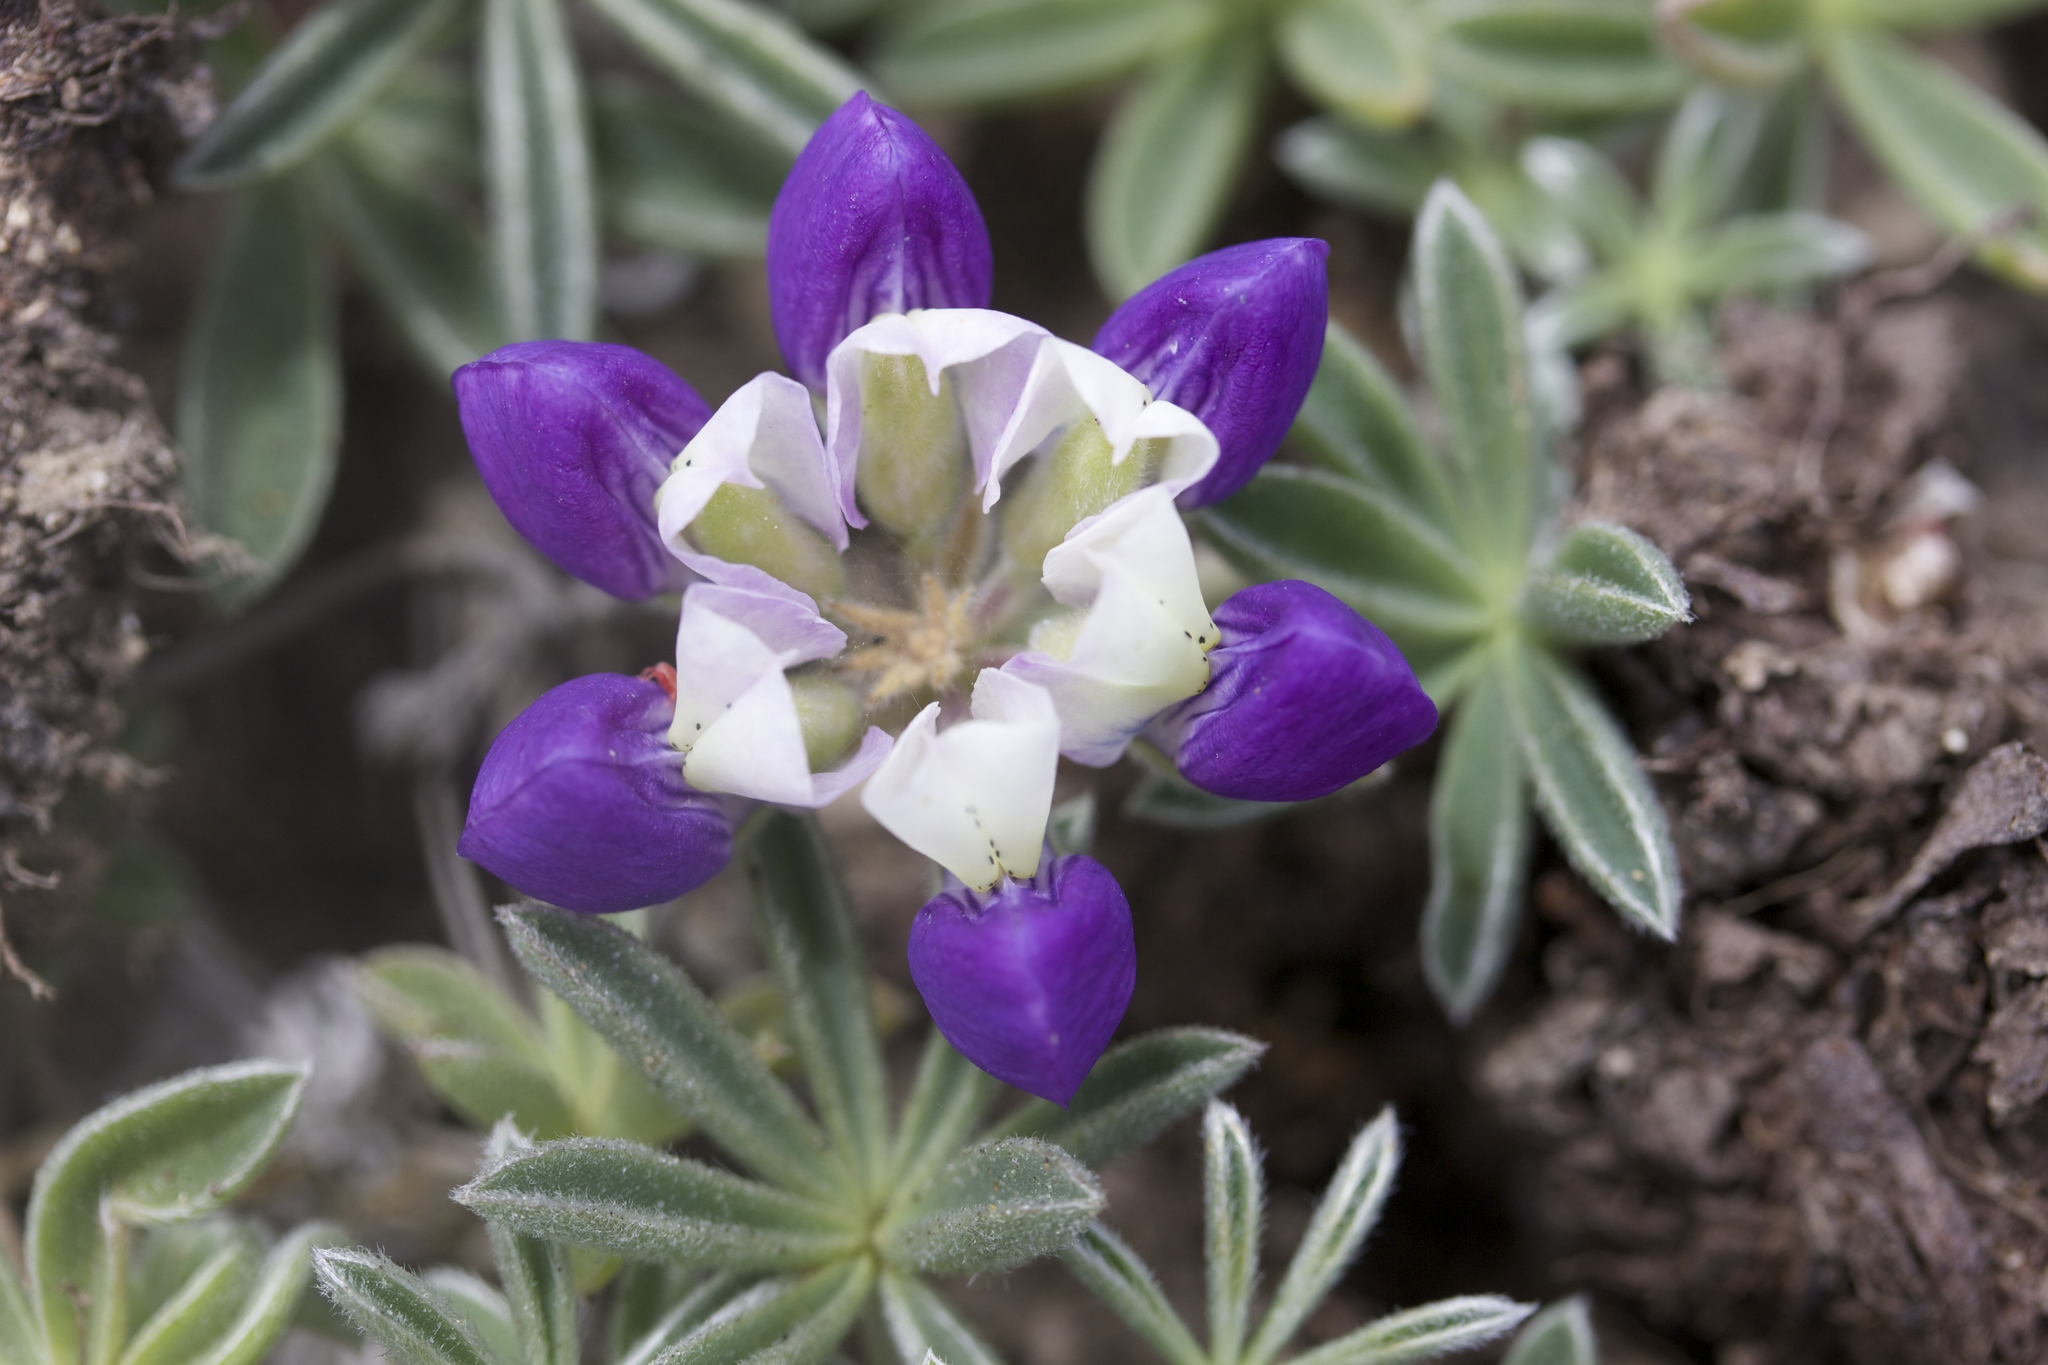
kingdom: Plantae
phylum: Tracheophyta
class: Magnoliopsida
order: Fabales
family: Fabaceae
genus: Lupinus
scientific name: Lupinus variicolor
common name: Lindley's varied lupine
